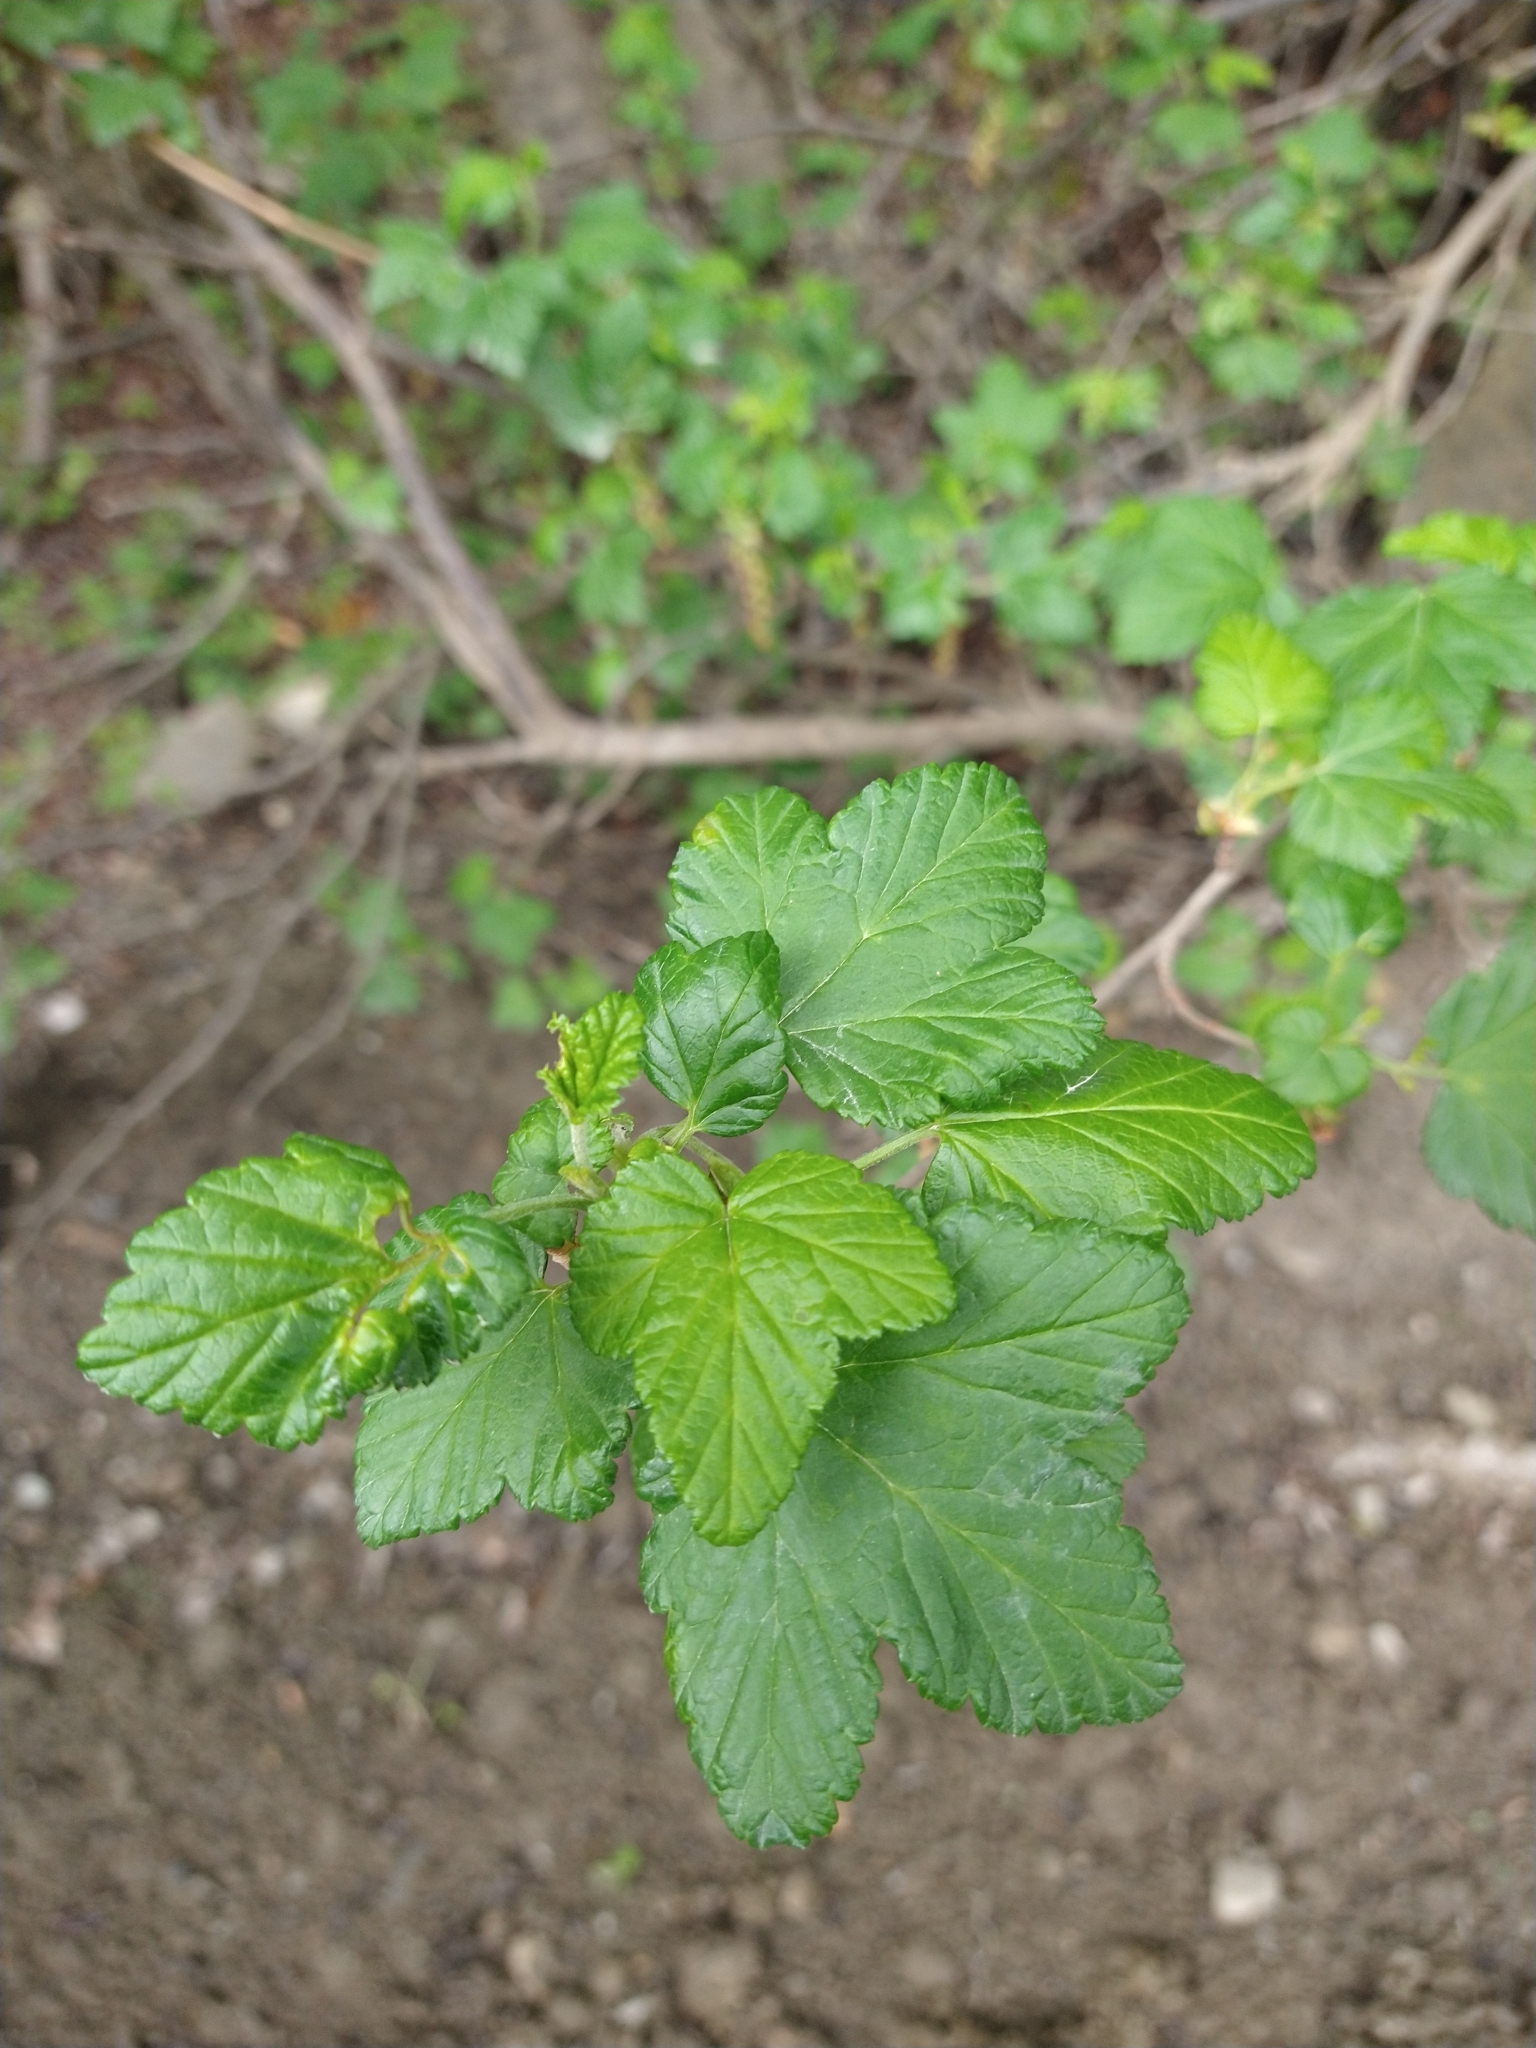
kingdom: Plantae
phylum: Tracheophyta
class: Magnoliopsida
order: Saxifragales
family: Grossulariaceae
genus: Ribes
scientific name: Ribes magellanicum
